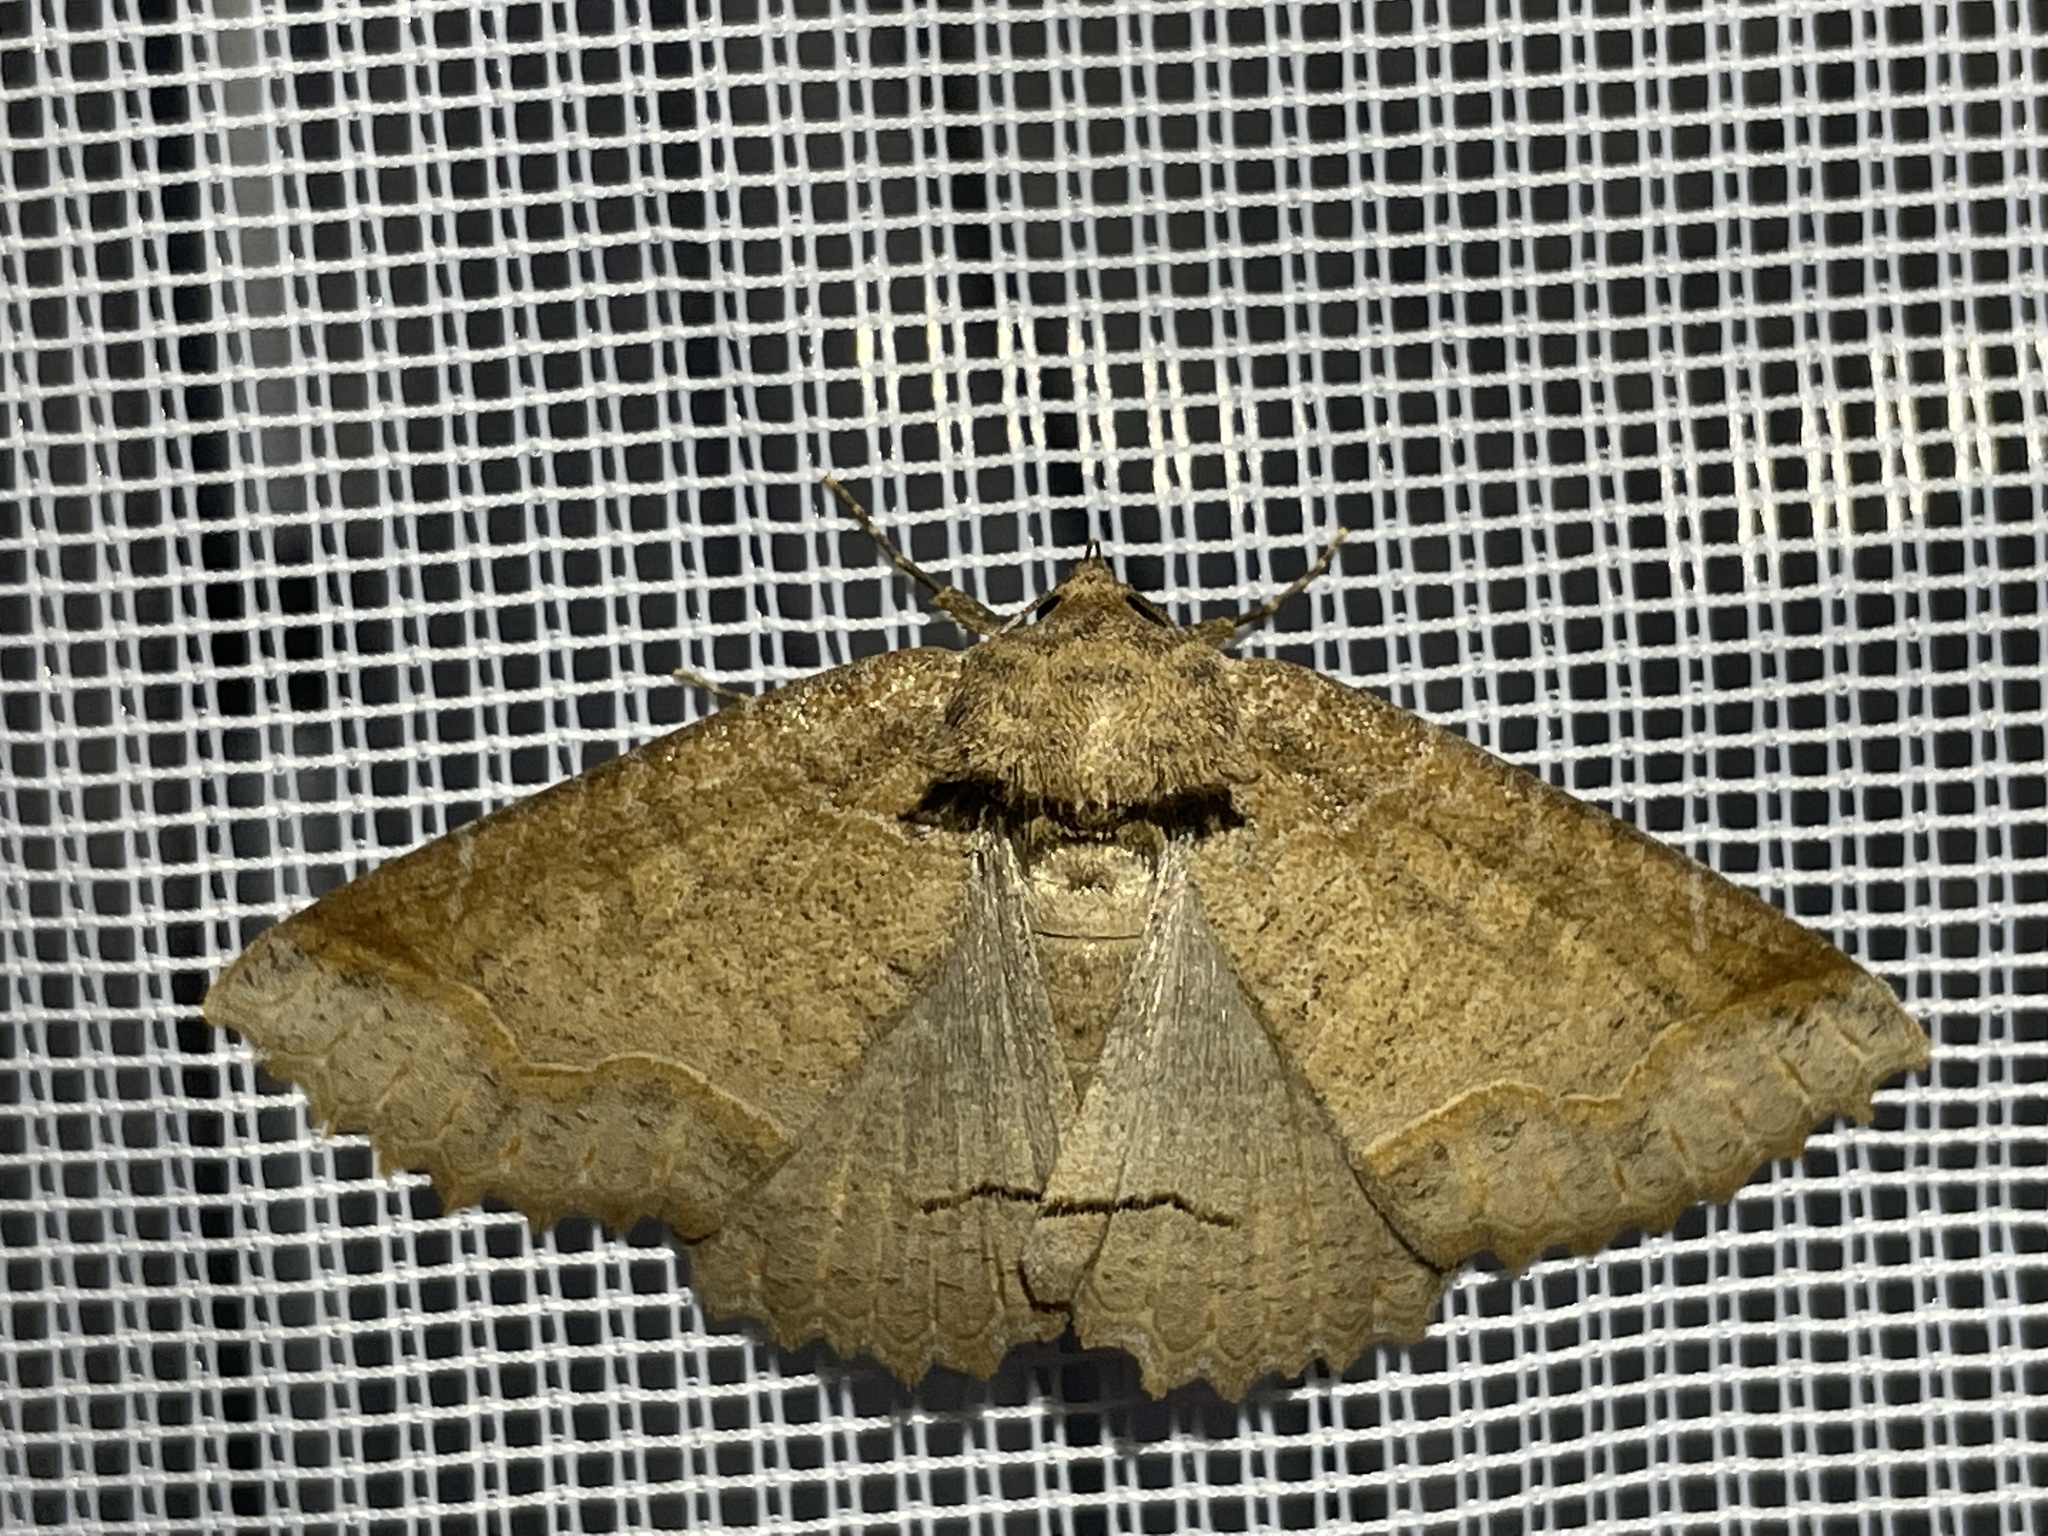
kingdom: Animalia
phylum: Arthropoda
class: Insecta
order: Lepidoptera
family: Erebidae
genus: Zale
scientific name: Zale unilineata
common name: One-lined zale moth
